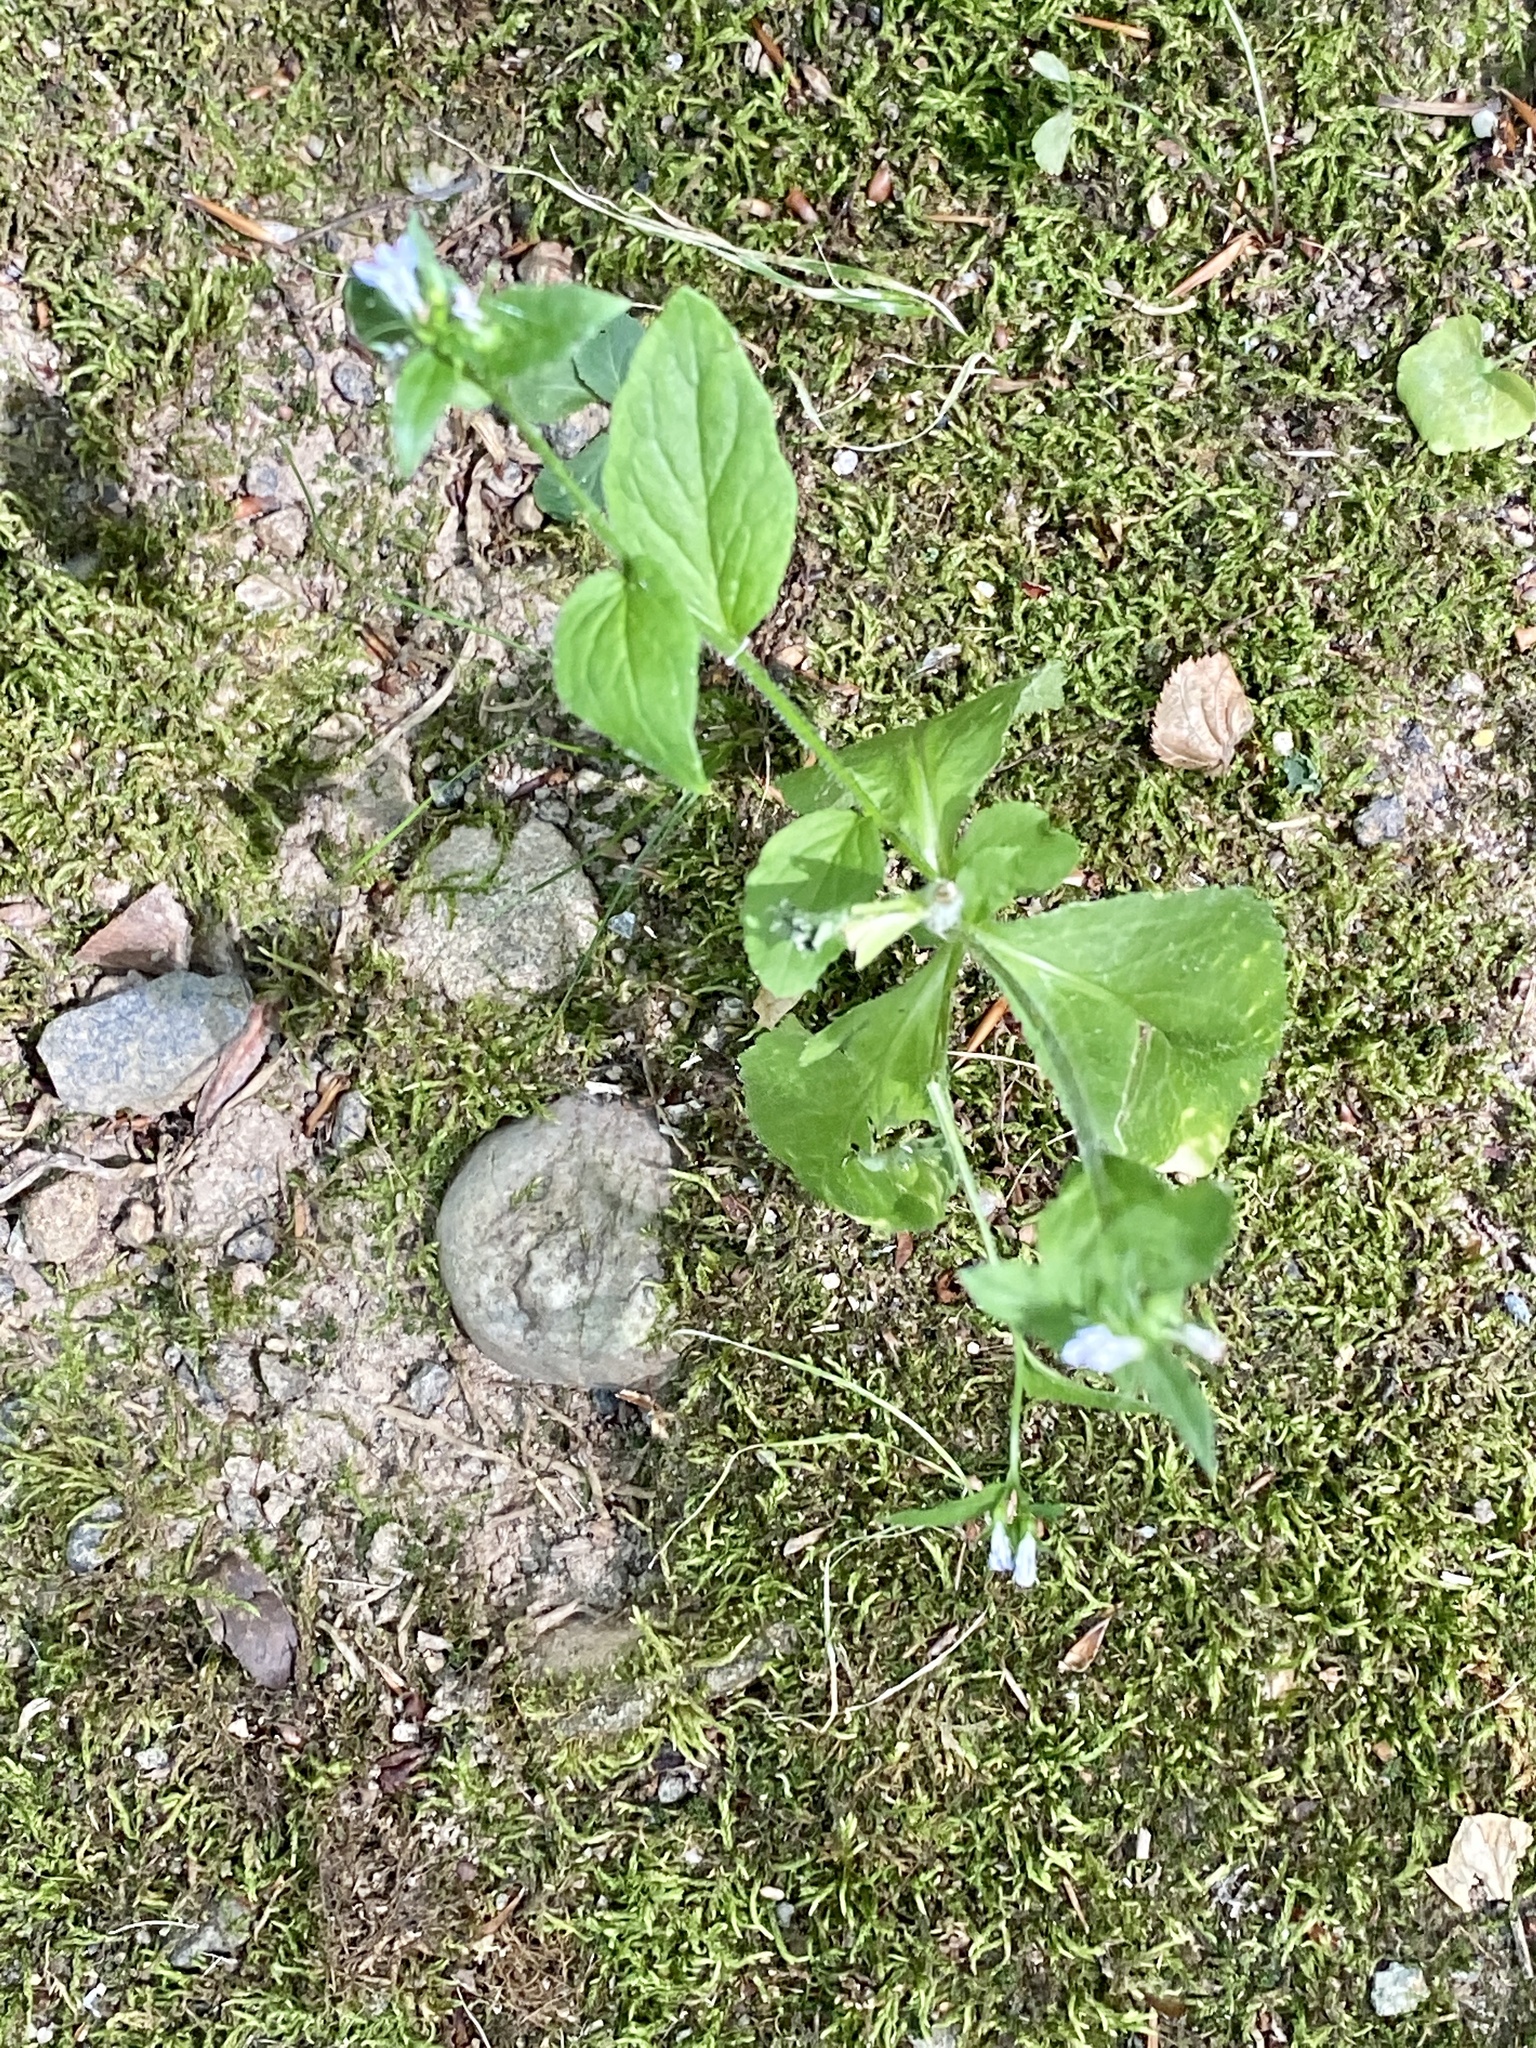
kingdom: Plantae
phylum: Tracheophyta
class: Magnoliopsida
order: Asterales
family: Campanulaceae
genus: Lobelia
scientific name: Lobelia inflata
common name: Indian tobacco
